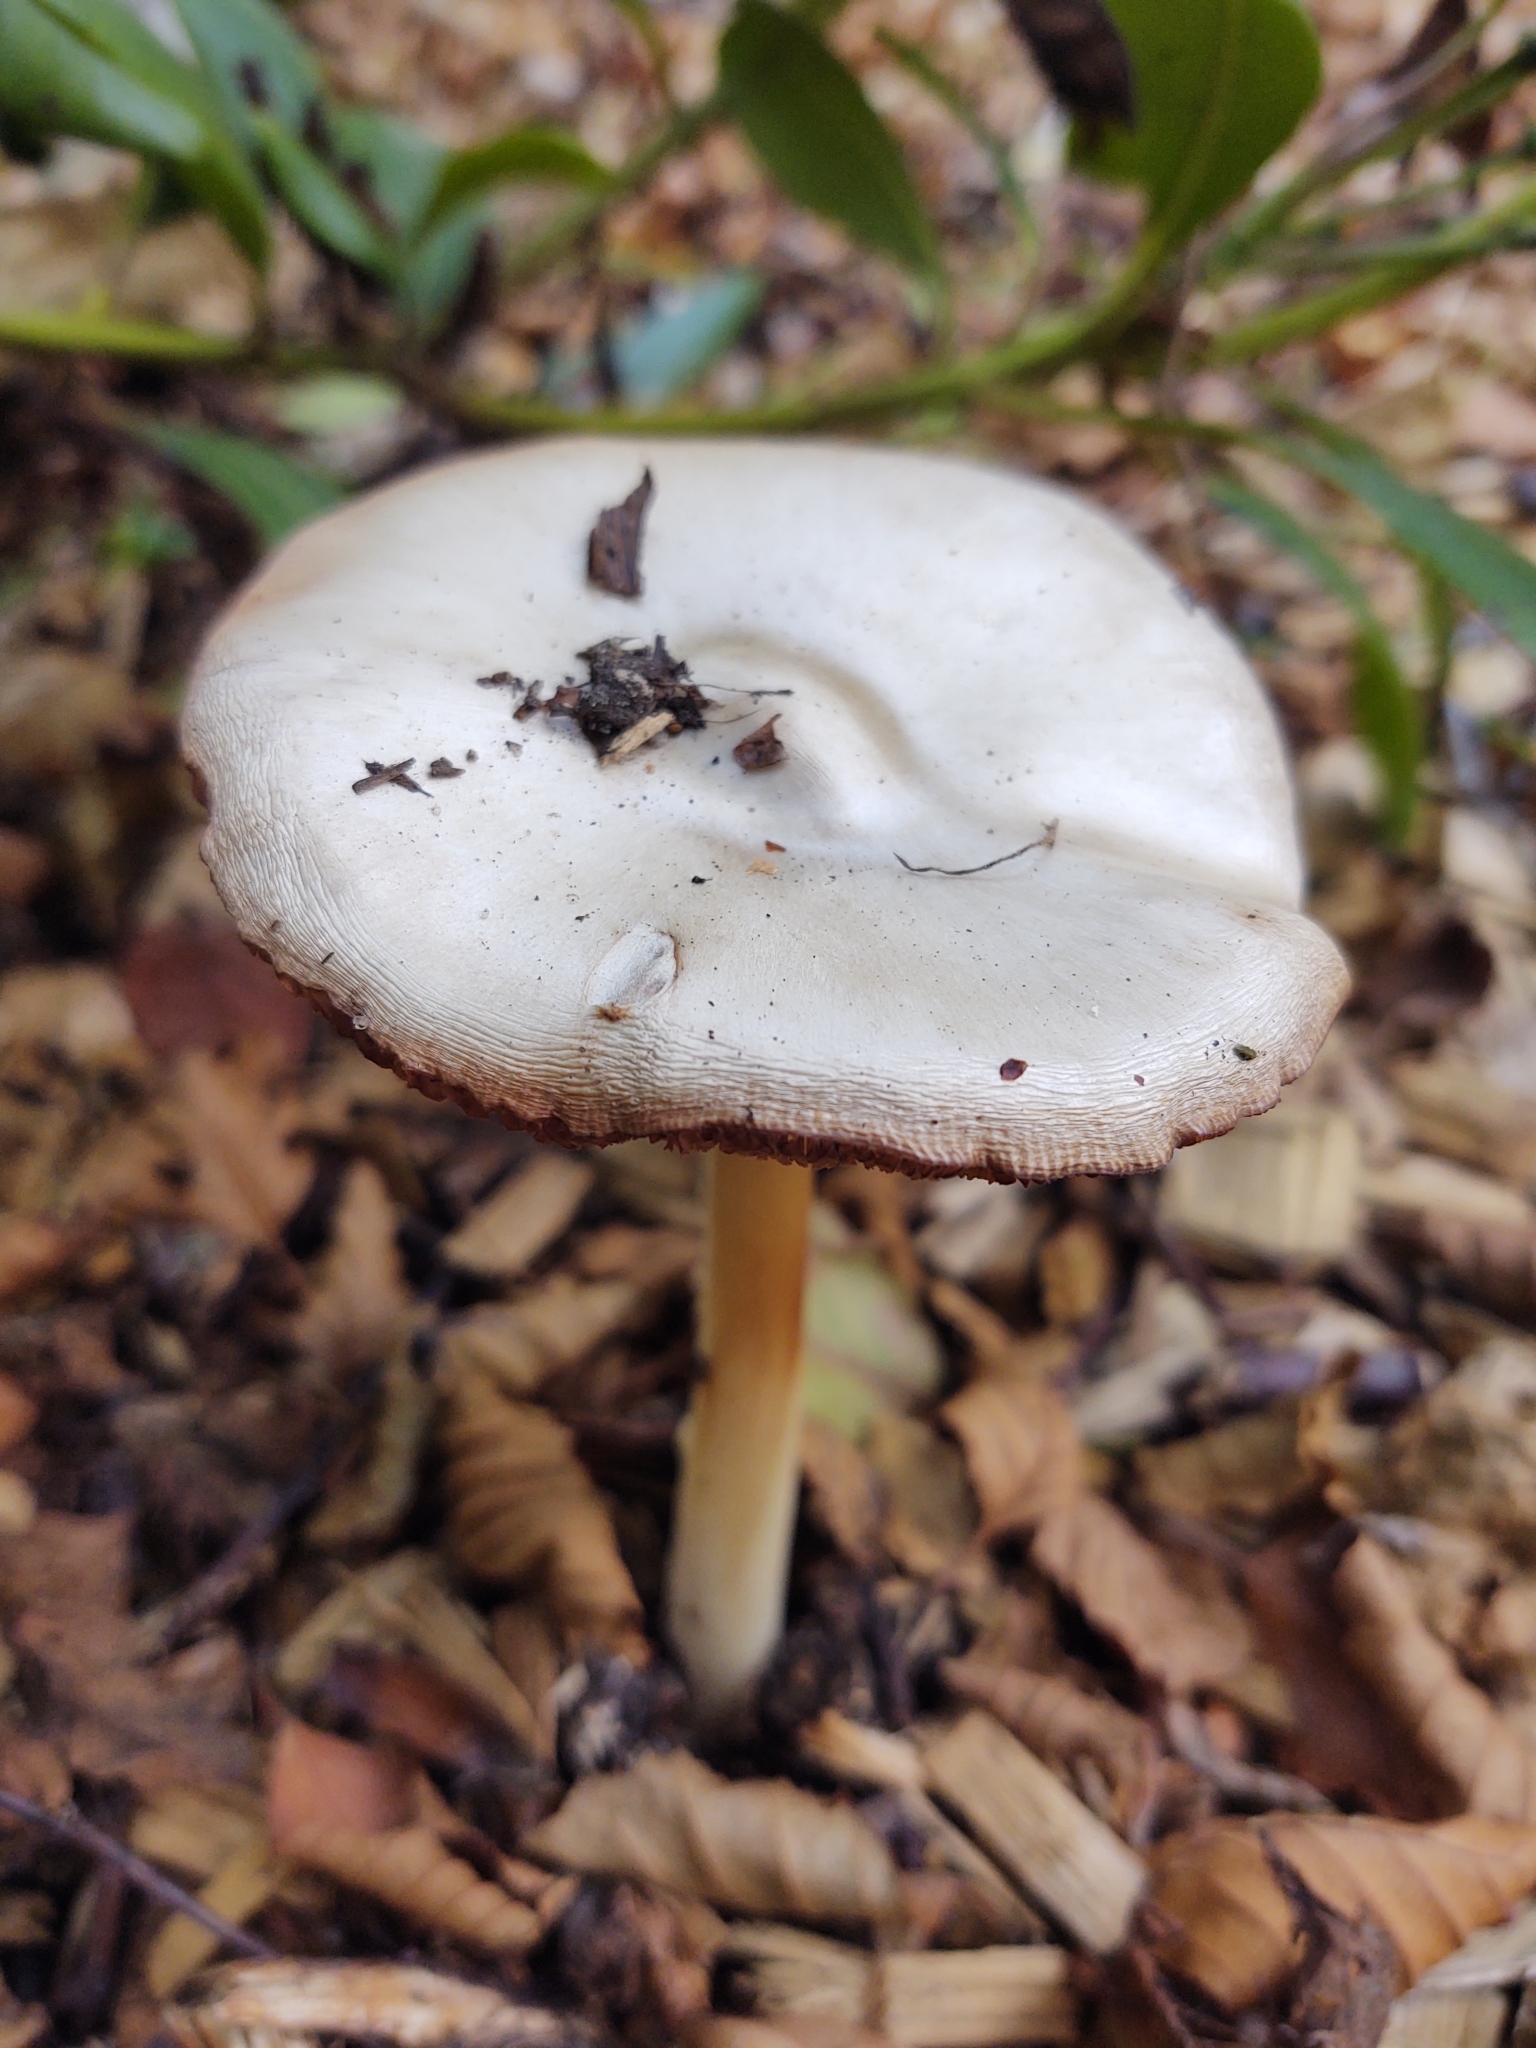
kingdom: Fungi
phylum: Basidiomycota
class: Agaricomycetes
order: Agaricales
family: Pluteaceae
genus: Volvopluteus
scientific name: Volvopluteus gloiocephalus
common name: Stubble rosegill
